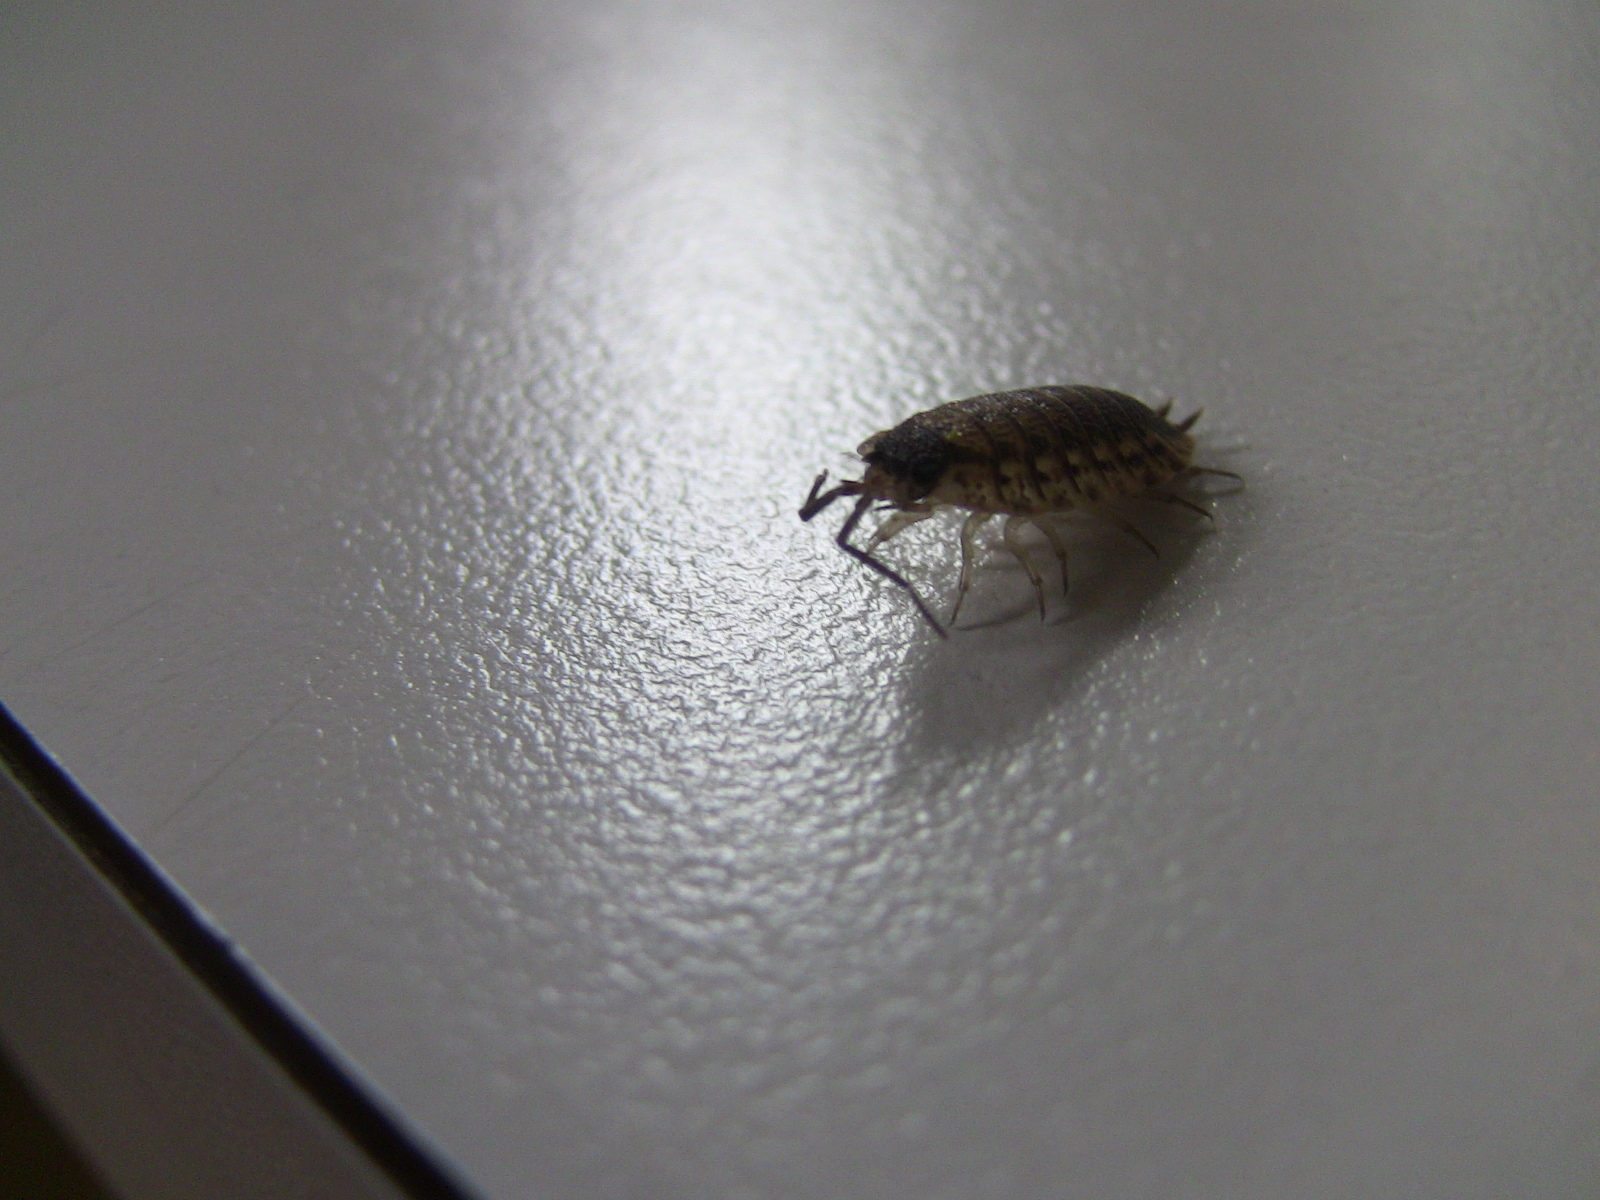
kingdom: Animalia
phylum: Arthropoda
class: Malacostraca
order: Isopoda
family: Porcellionidae
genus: Porcellio
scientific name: Porcellio spinicornis
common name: Painted woodlouse
